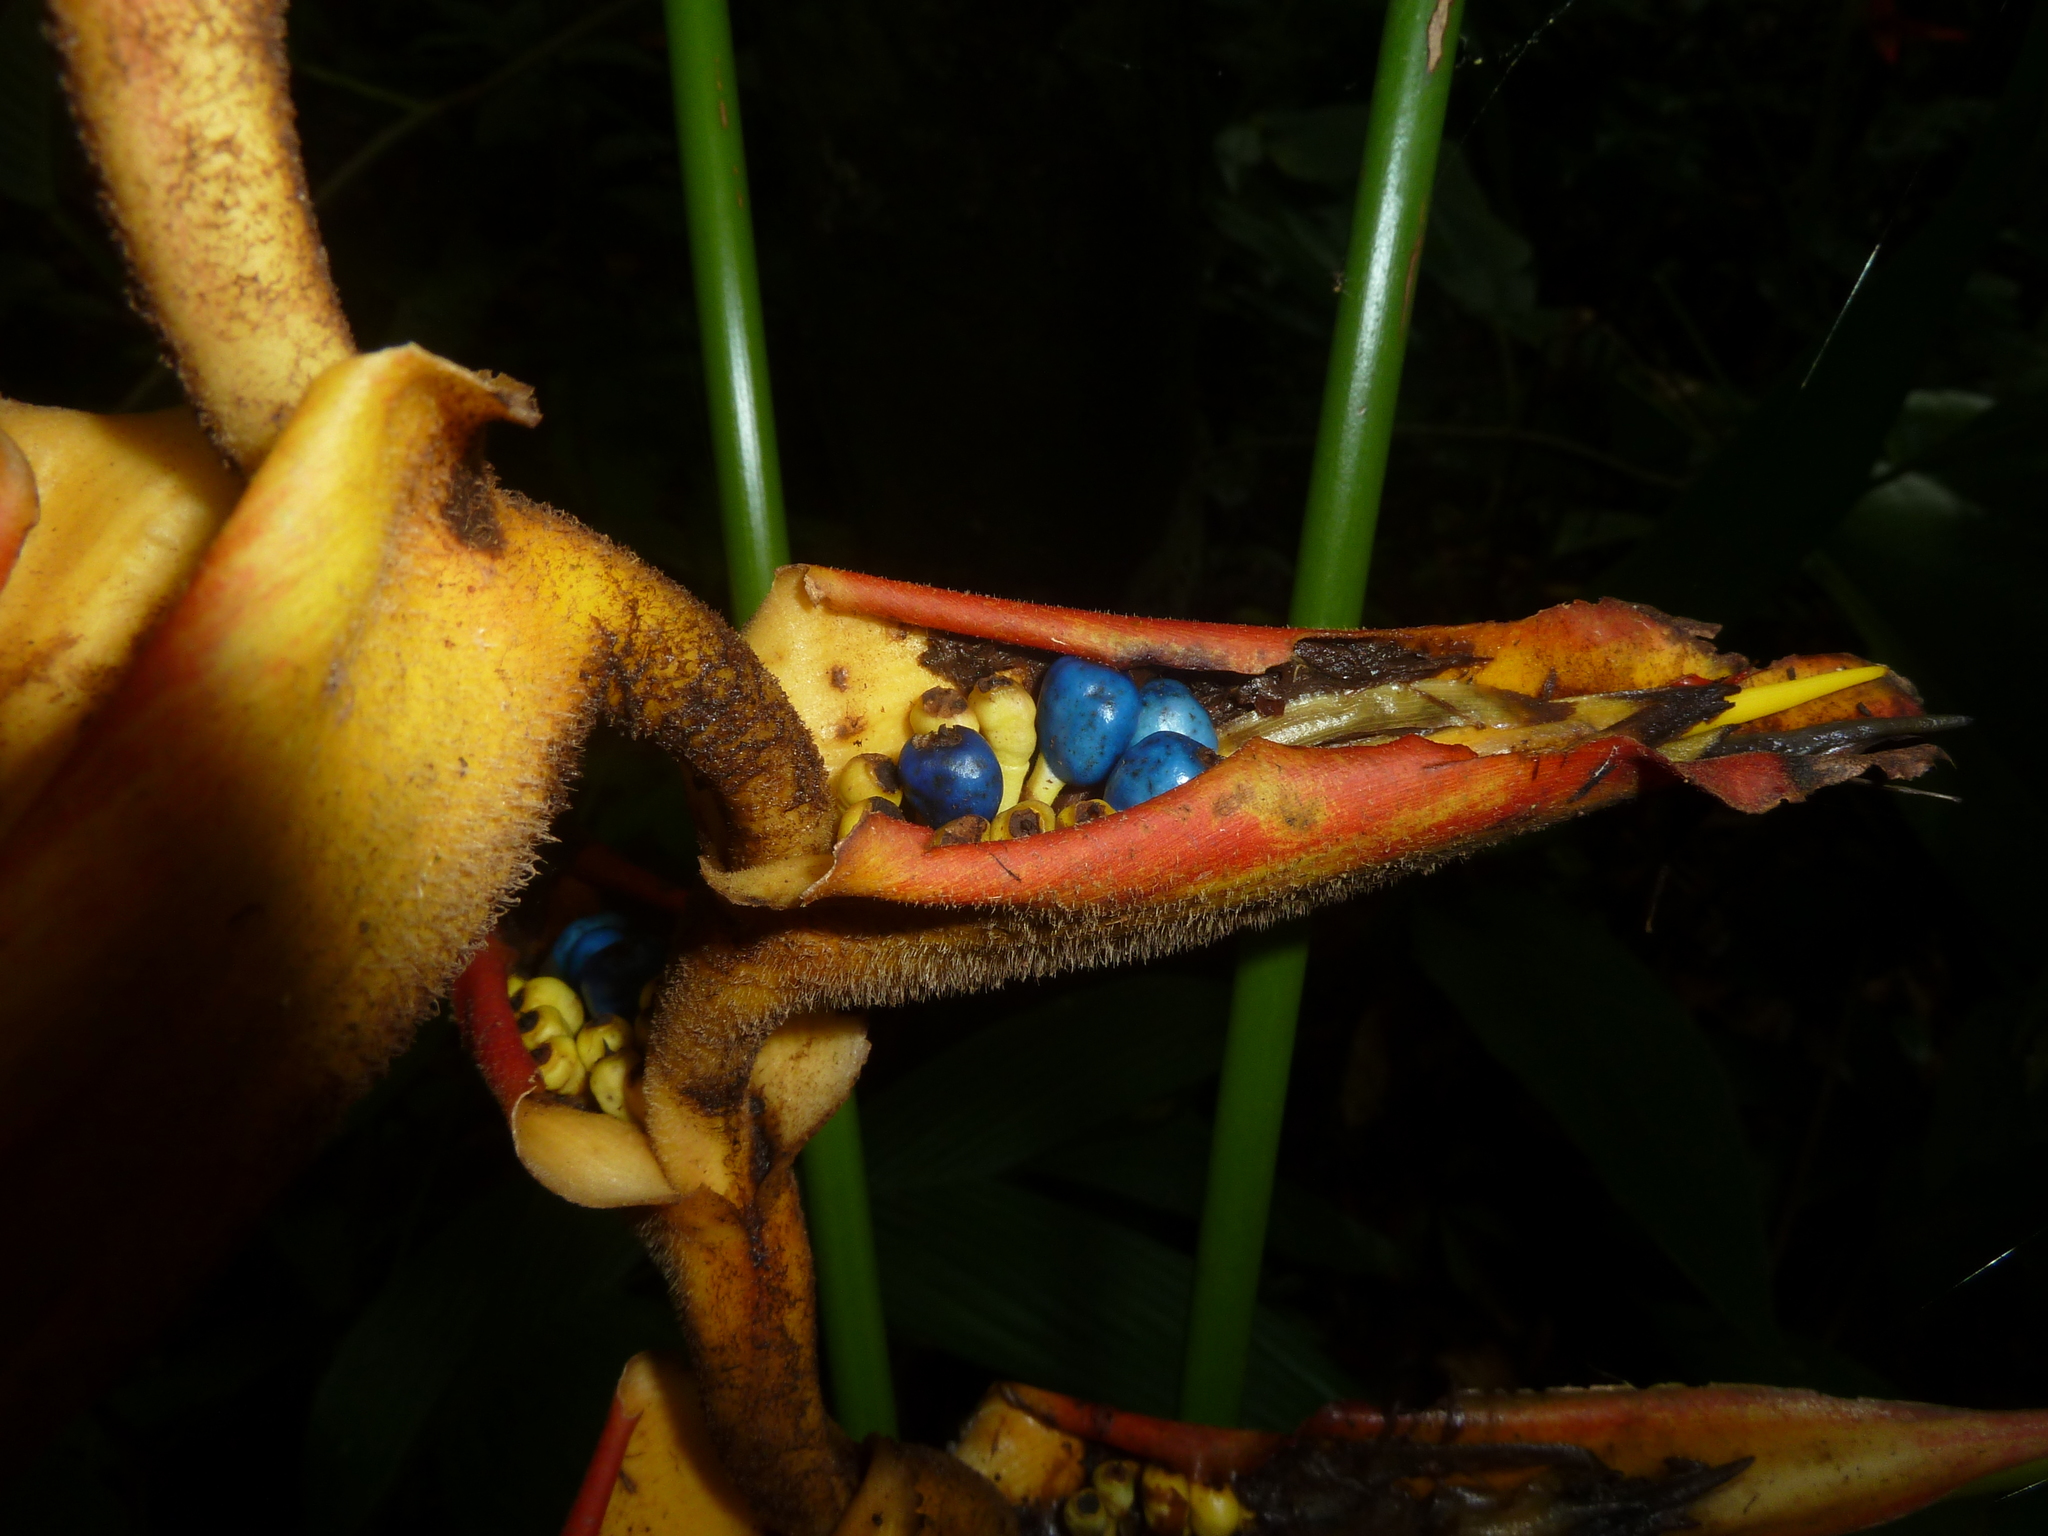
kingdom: Plantae
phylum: Tracheophyta
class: Liliopsida
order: Zingiberales
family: Heliconiaceae
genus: Heliconia
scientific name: Heliconia irrasa
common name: Wild plantain
